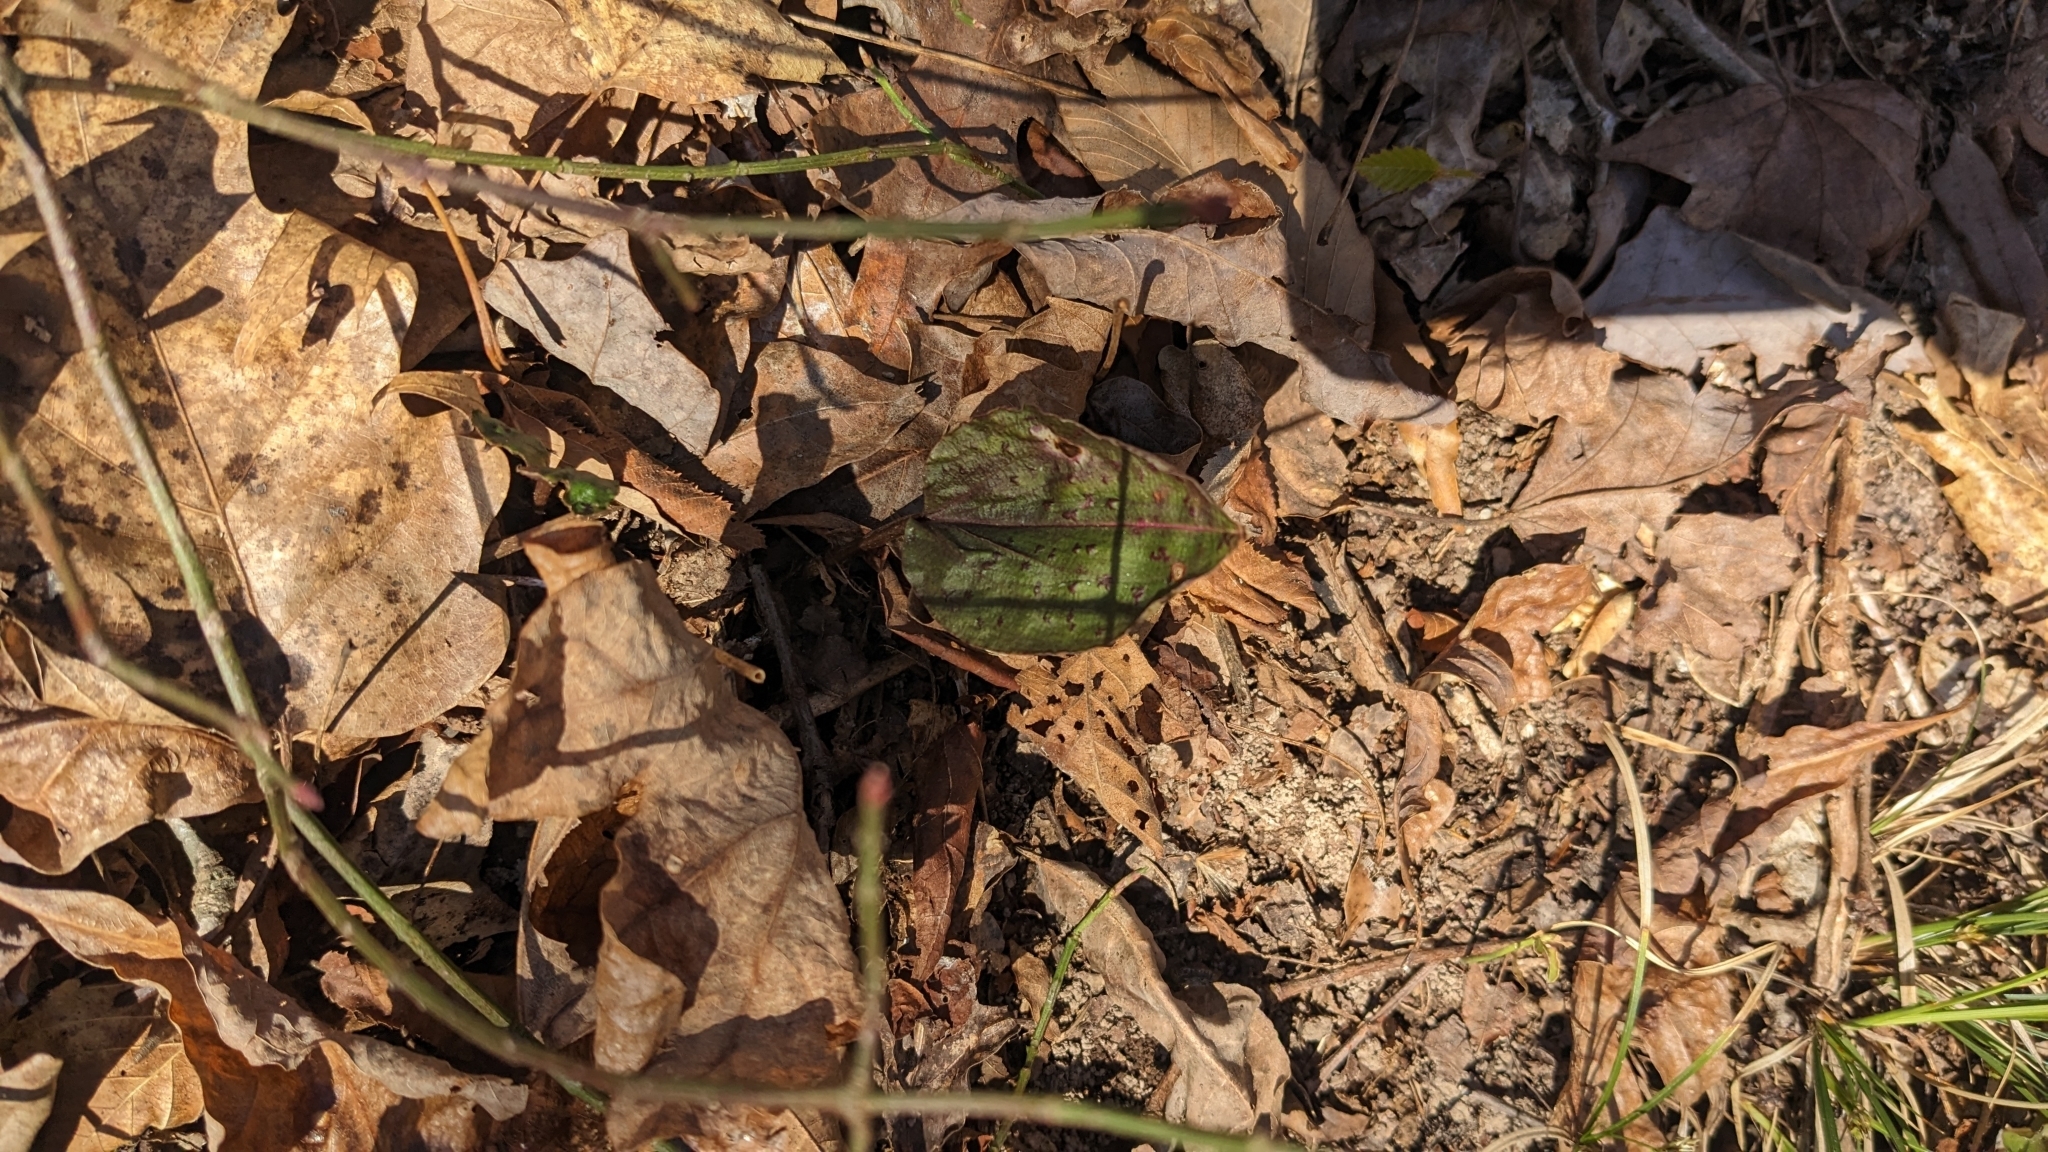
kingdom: Plantae
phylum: Tracheophyta
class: Liliopsida
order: Asparagales
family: Orchidaceae
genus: Tipularia
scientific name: Tipularia discolor
